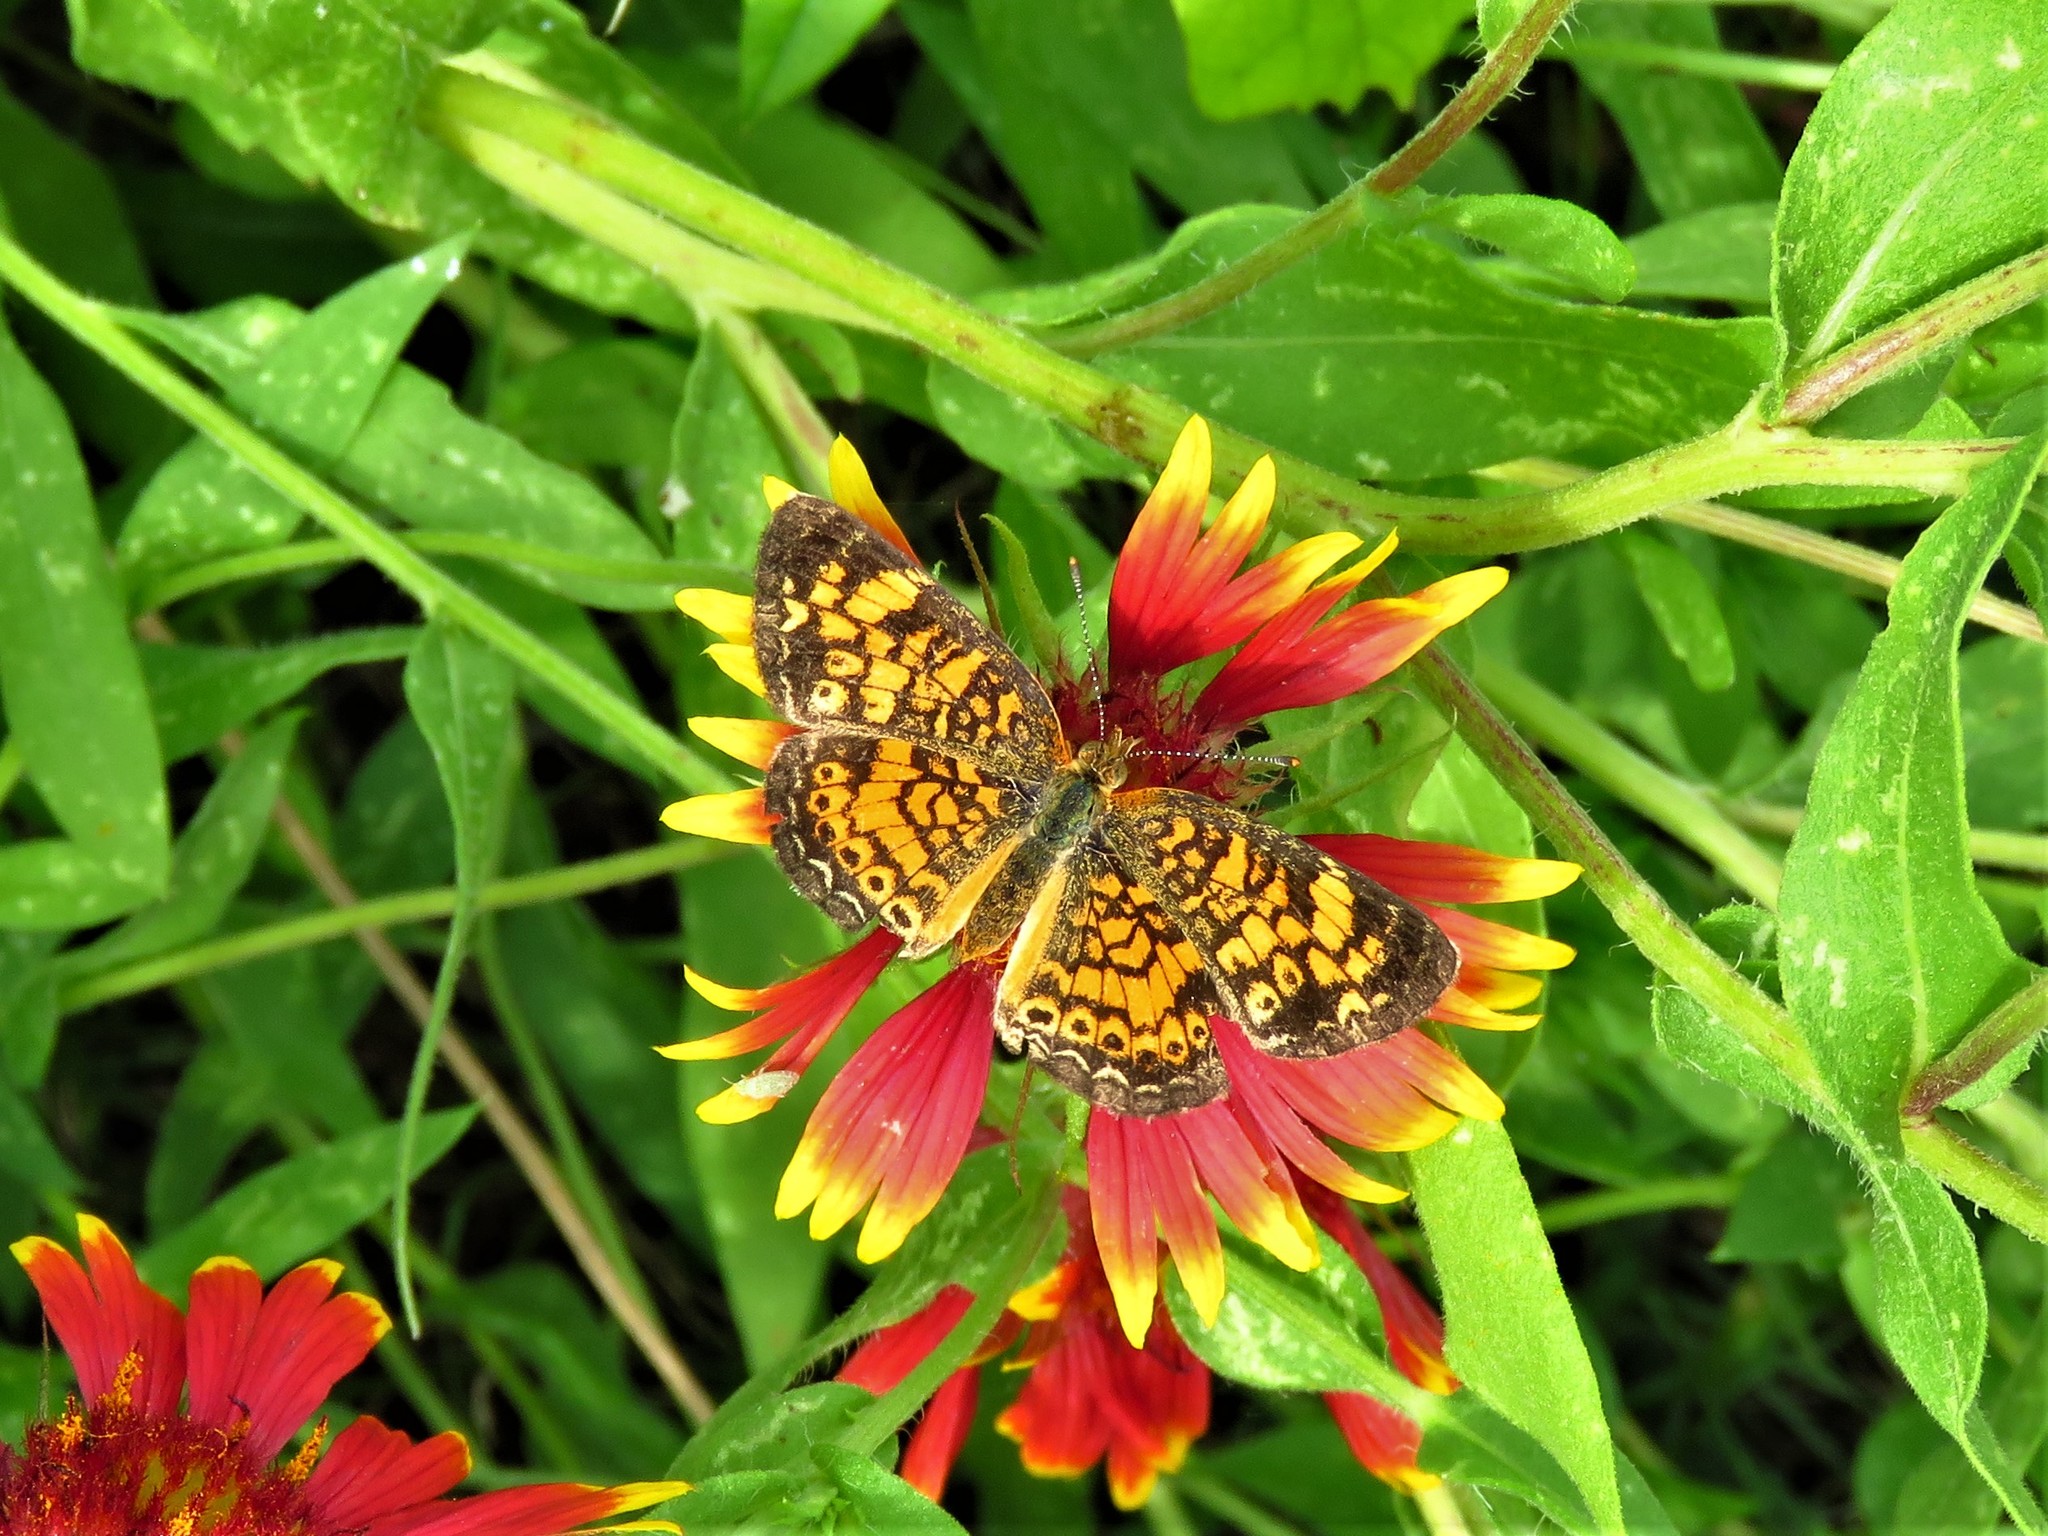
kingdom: Animalia
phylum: Arthropoda
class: Insecta
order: Lepidoptera
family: Nymphalidae
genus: Phyciodes
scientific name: Phyciodes tharos
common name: Pearl crescent
